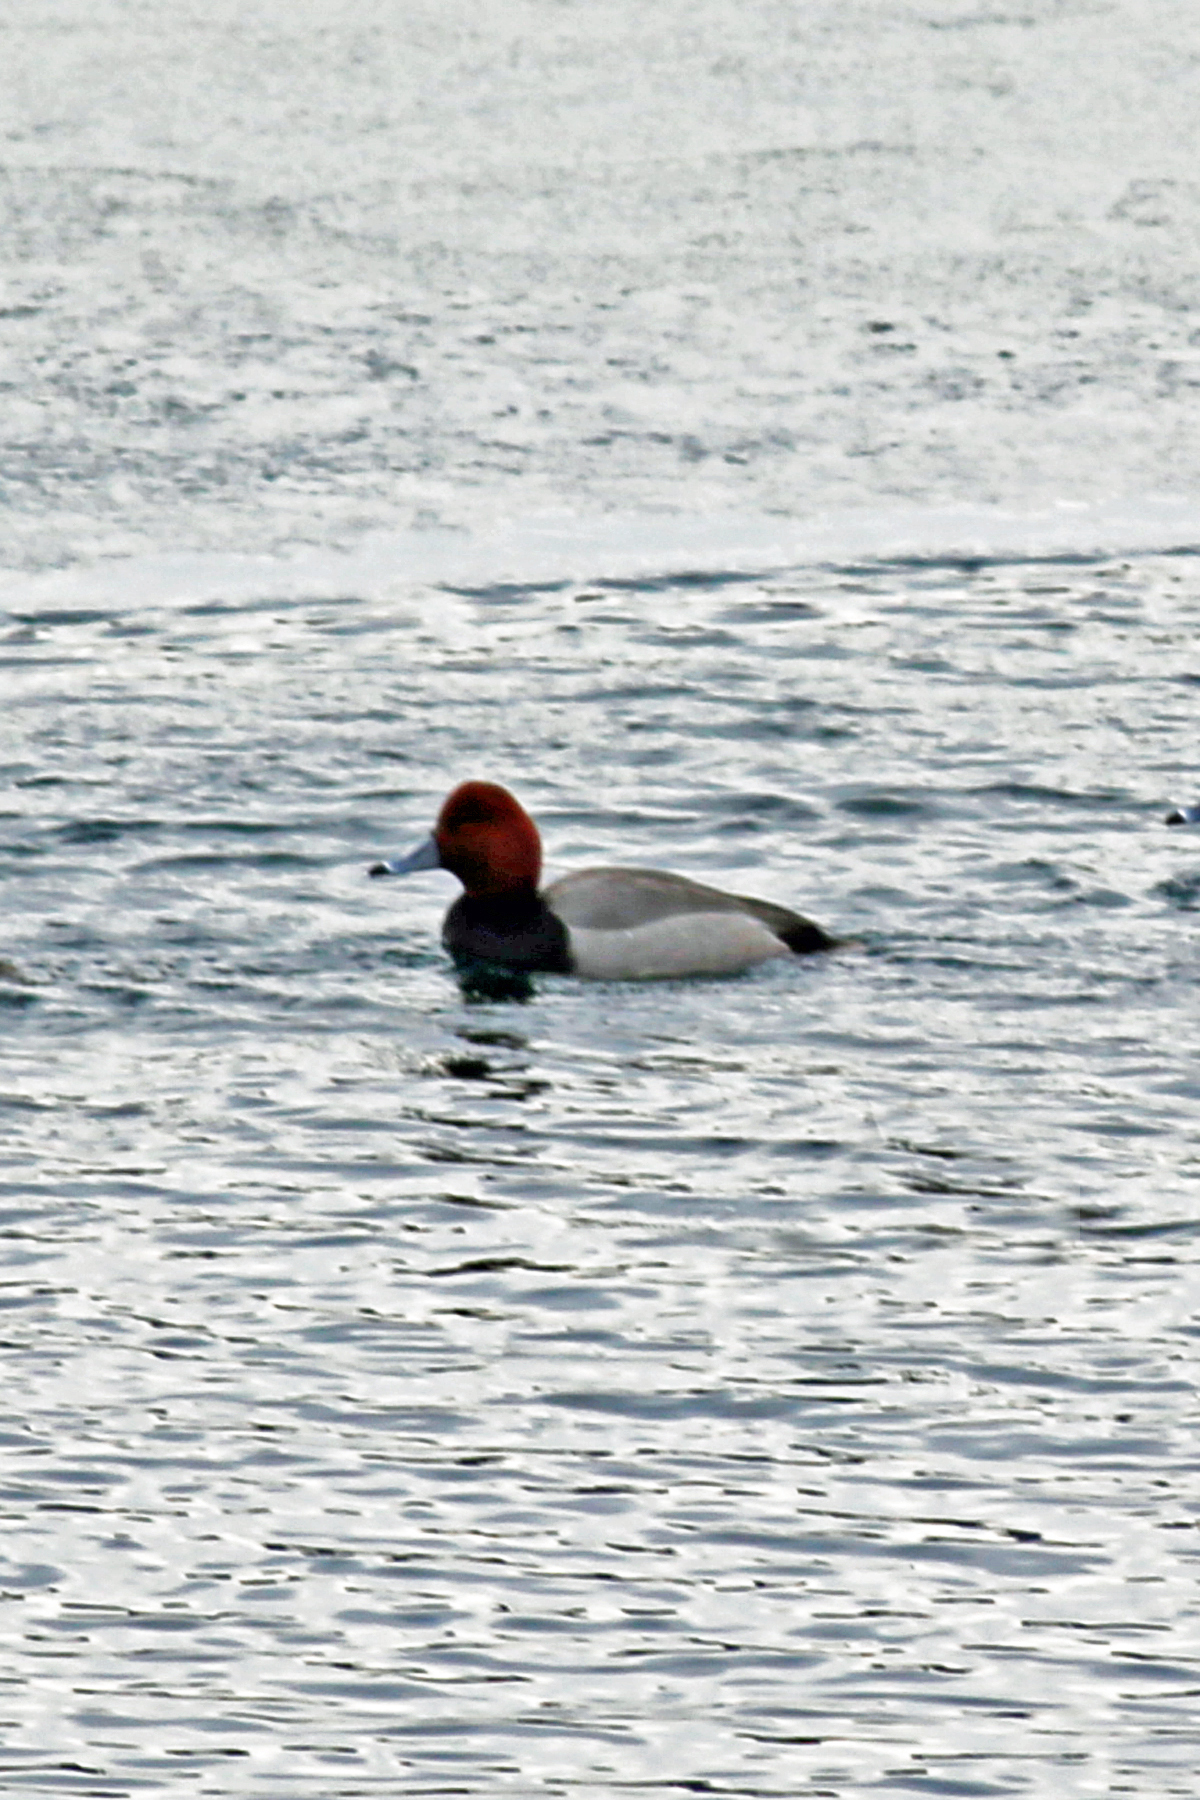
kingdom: Animalia
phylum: Chordata
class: Aves
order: Anseriformes
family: Anatidae
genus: Aythya
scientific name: Aythya americana
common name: Redhead
